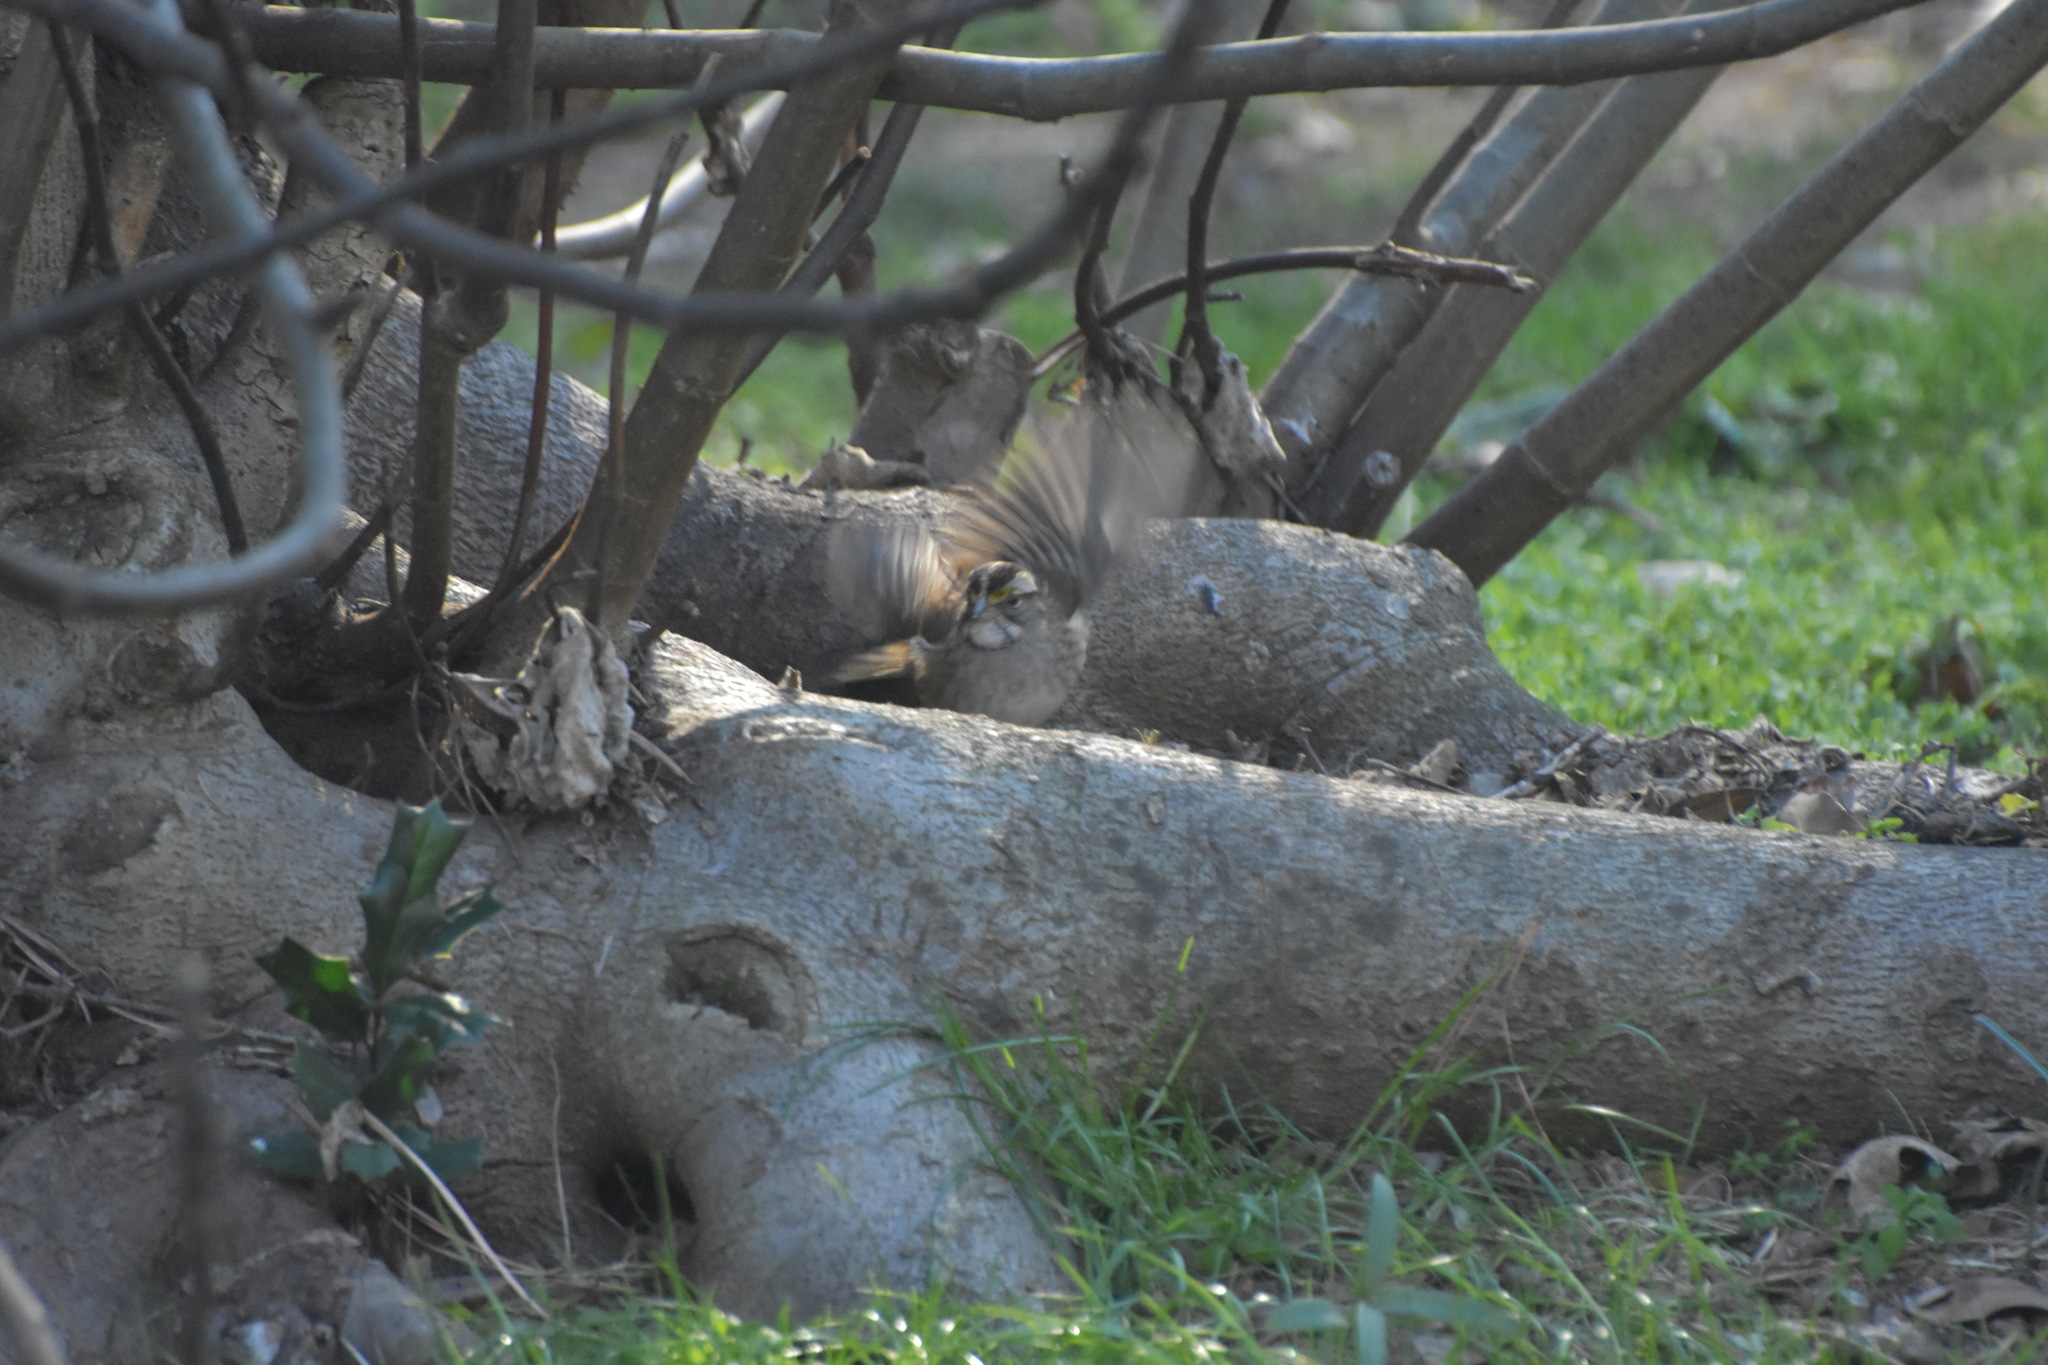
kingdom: Animalia
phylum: Chordata
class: Aves
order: Passeriformes
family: Passerellidae
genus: Zonotrichia
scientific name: Zonotrichia albicollis
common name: White-throated sparrow
